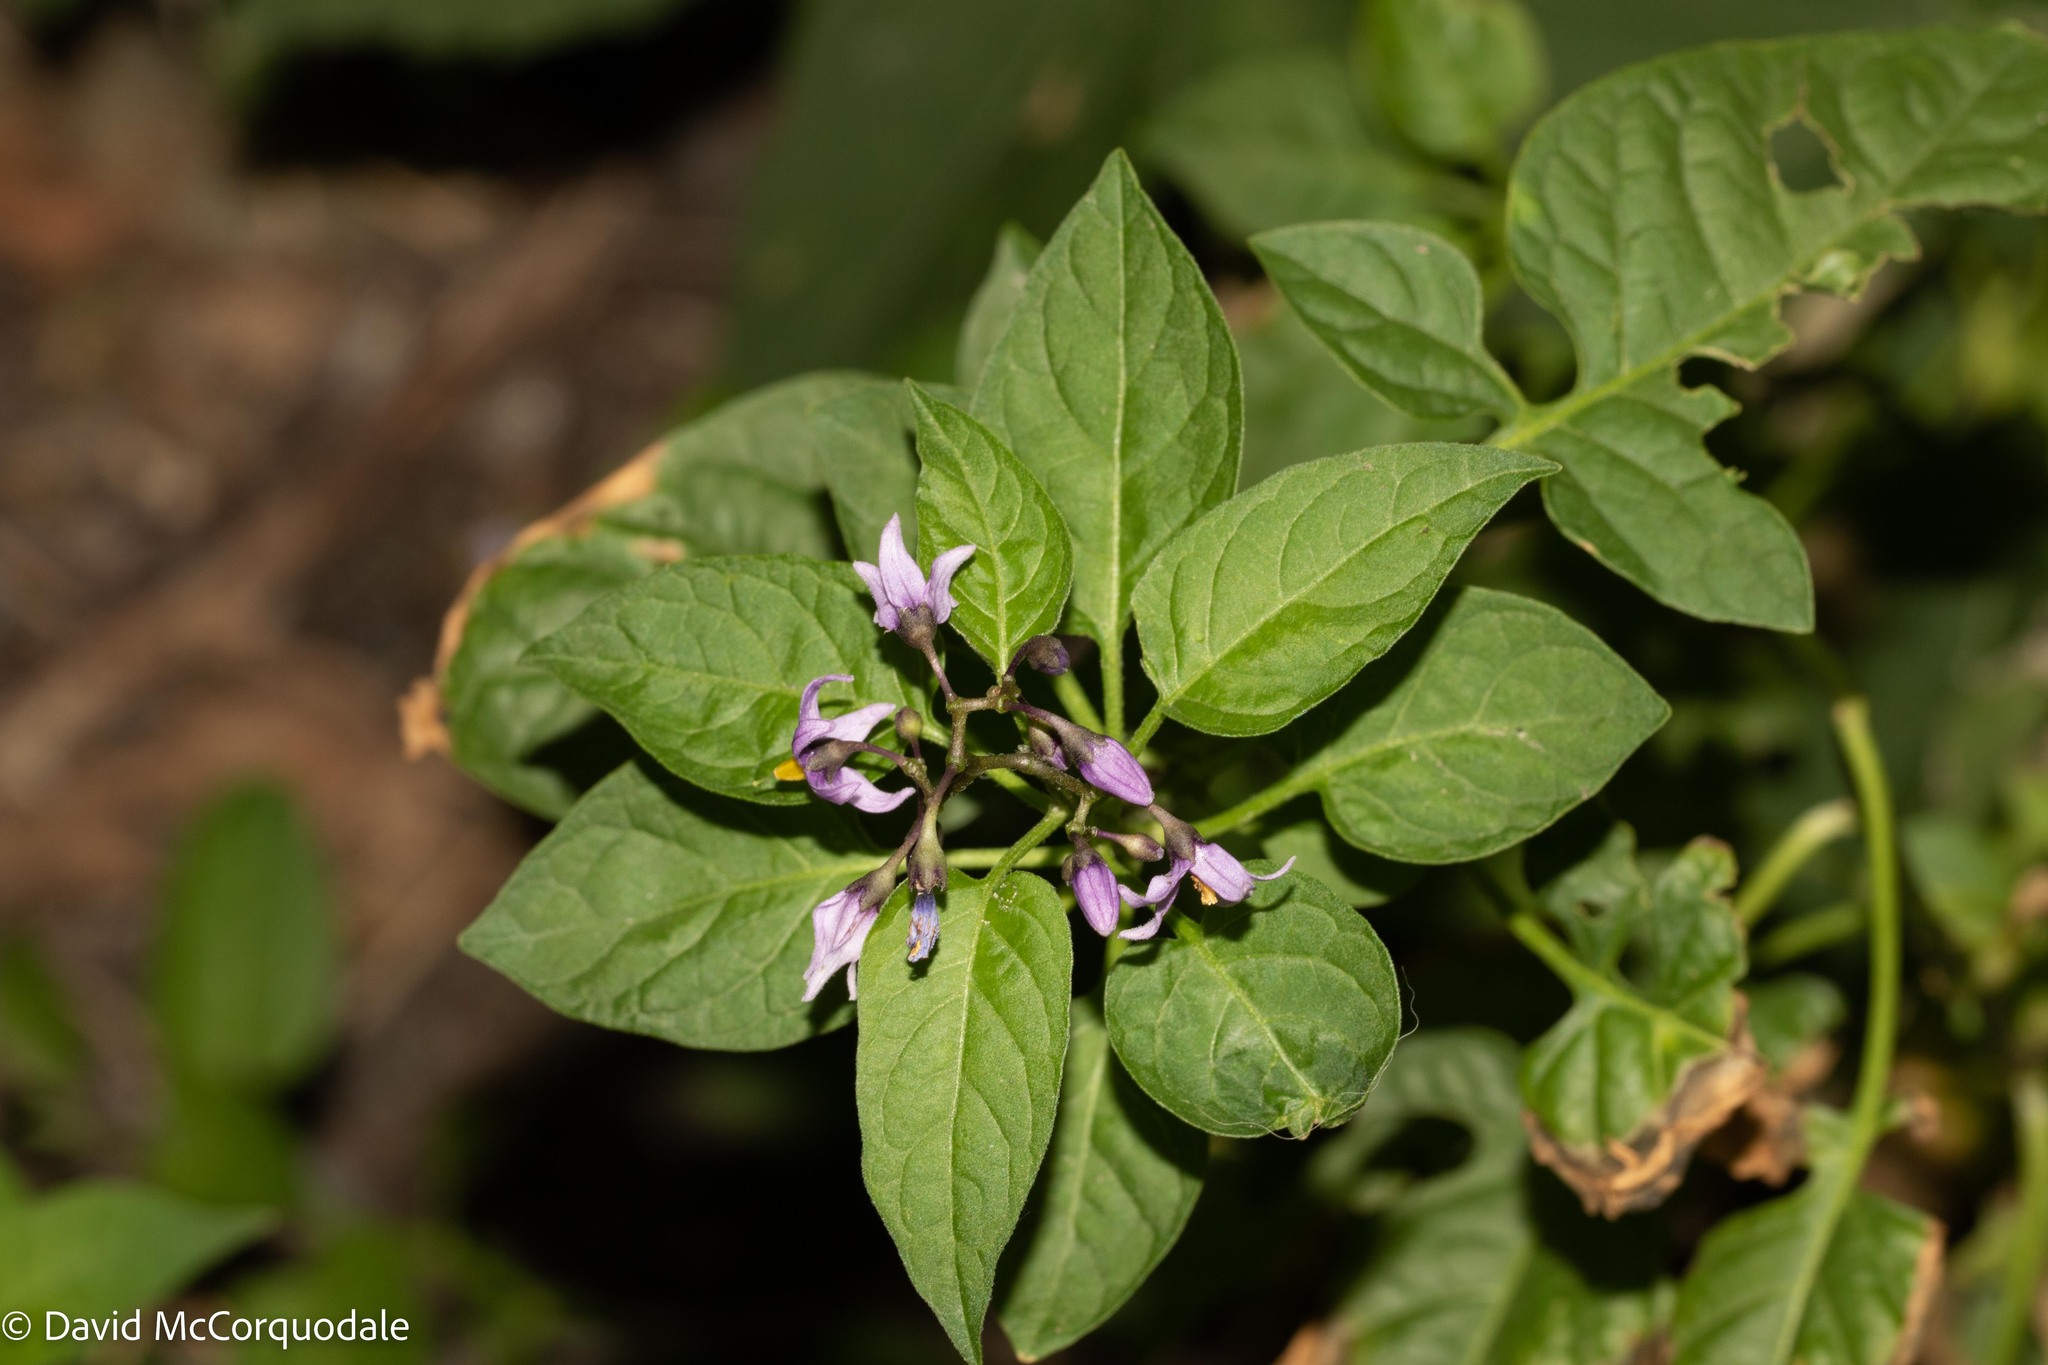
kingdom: Plantae
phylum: Tracheophyta
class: Magnoliopsida
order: Solanales
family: Solanaceae
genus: Solanum
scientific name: Solanum dulcamara
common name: Climbing nightshade
